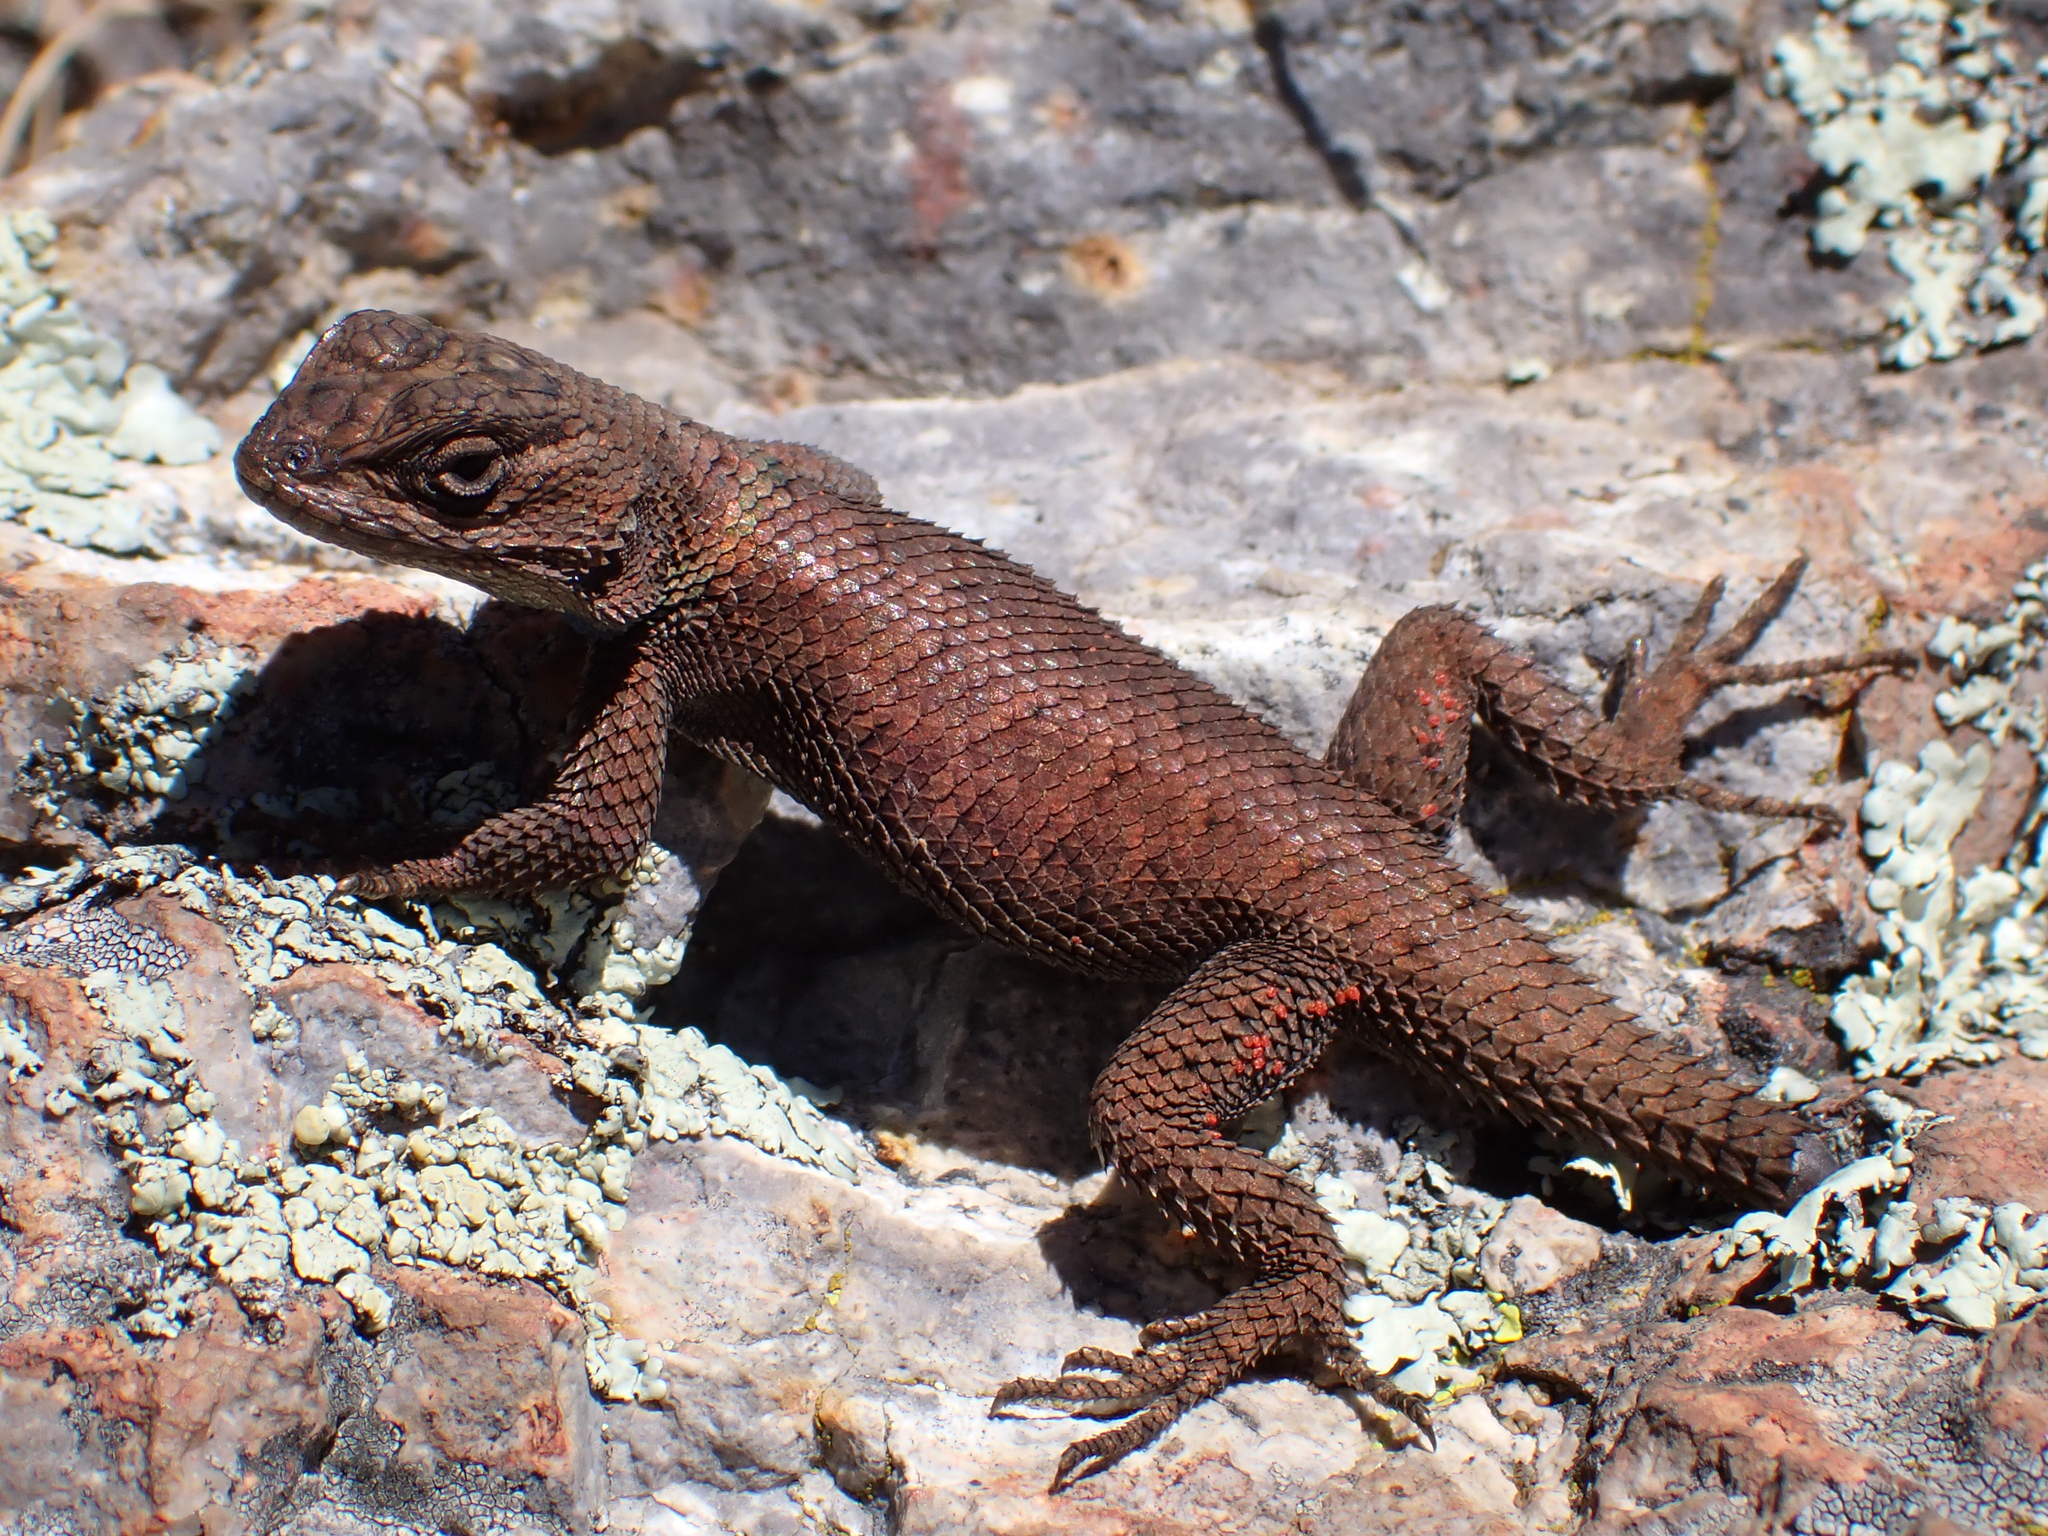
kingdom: Animalia
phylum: Chordata
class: Squamata
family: Phrynosomatidae
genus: Sceloporus
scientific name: Sceloporus jarrovii
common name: Yarrow's spiny lizard
